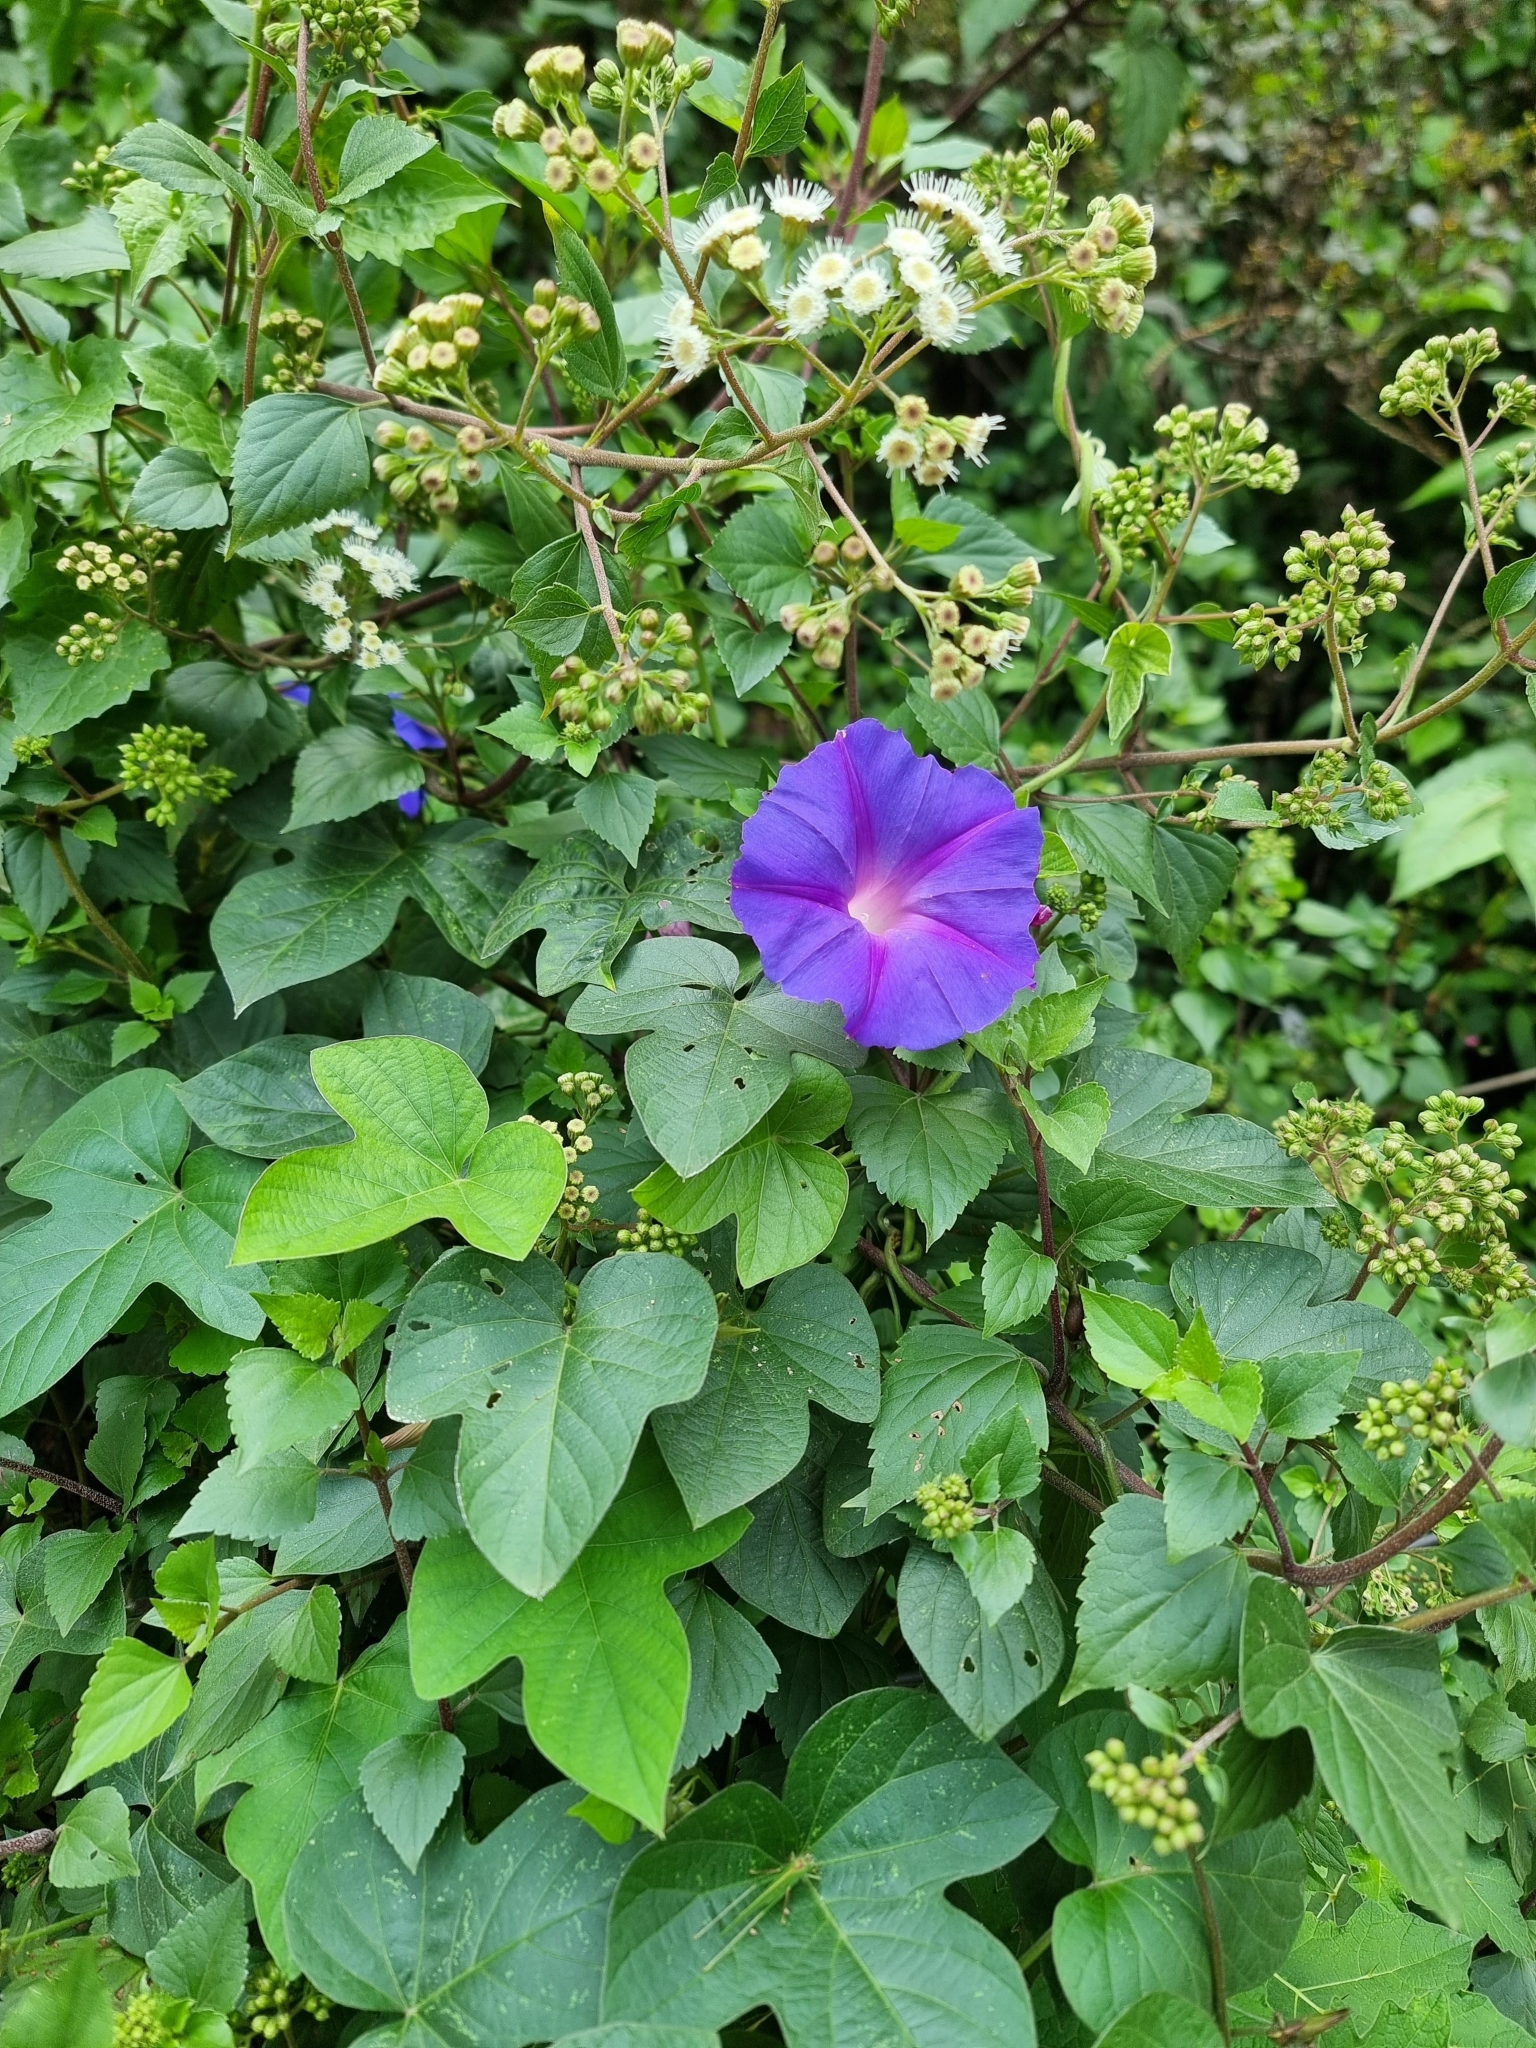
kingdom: Plantae
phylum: Tracheophyta
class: Magnoliopsida
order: Solanales
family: Convolvulaceae
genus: Ipomoea
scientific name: Ipomoea indica
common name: Blue dawnflower
